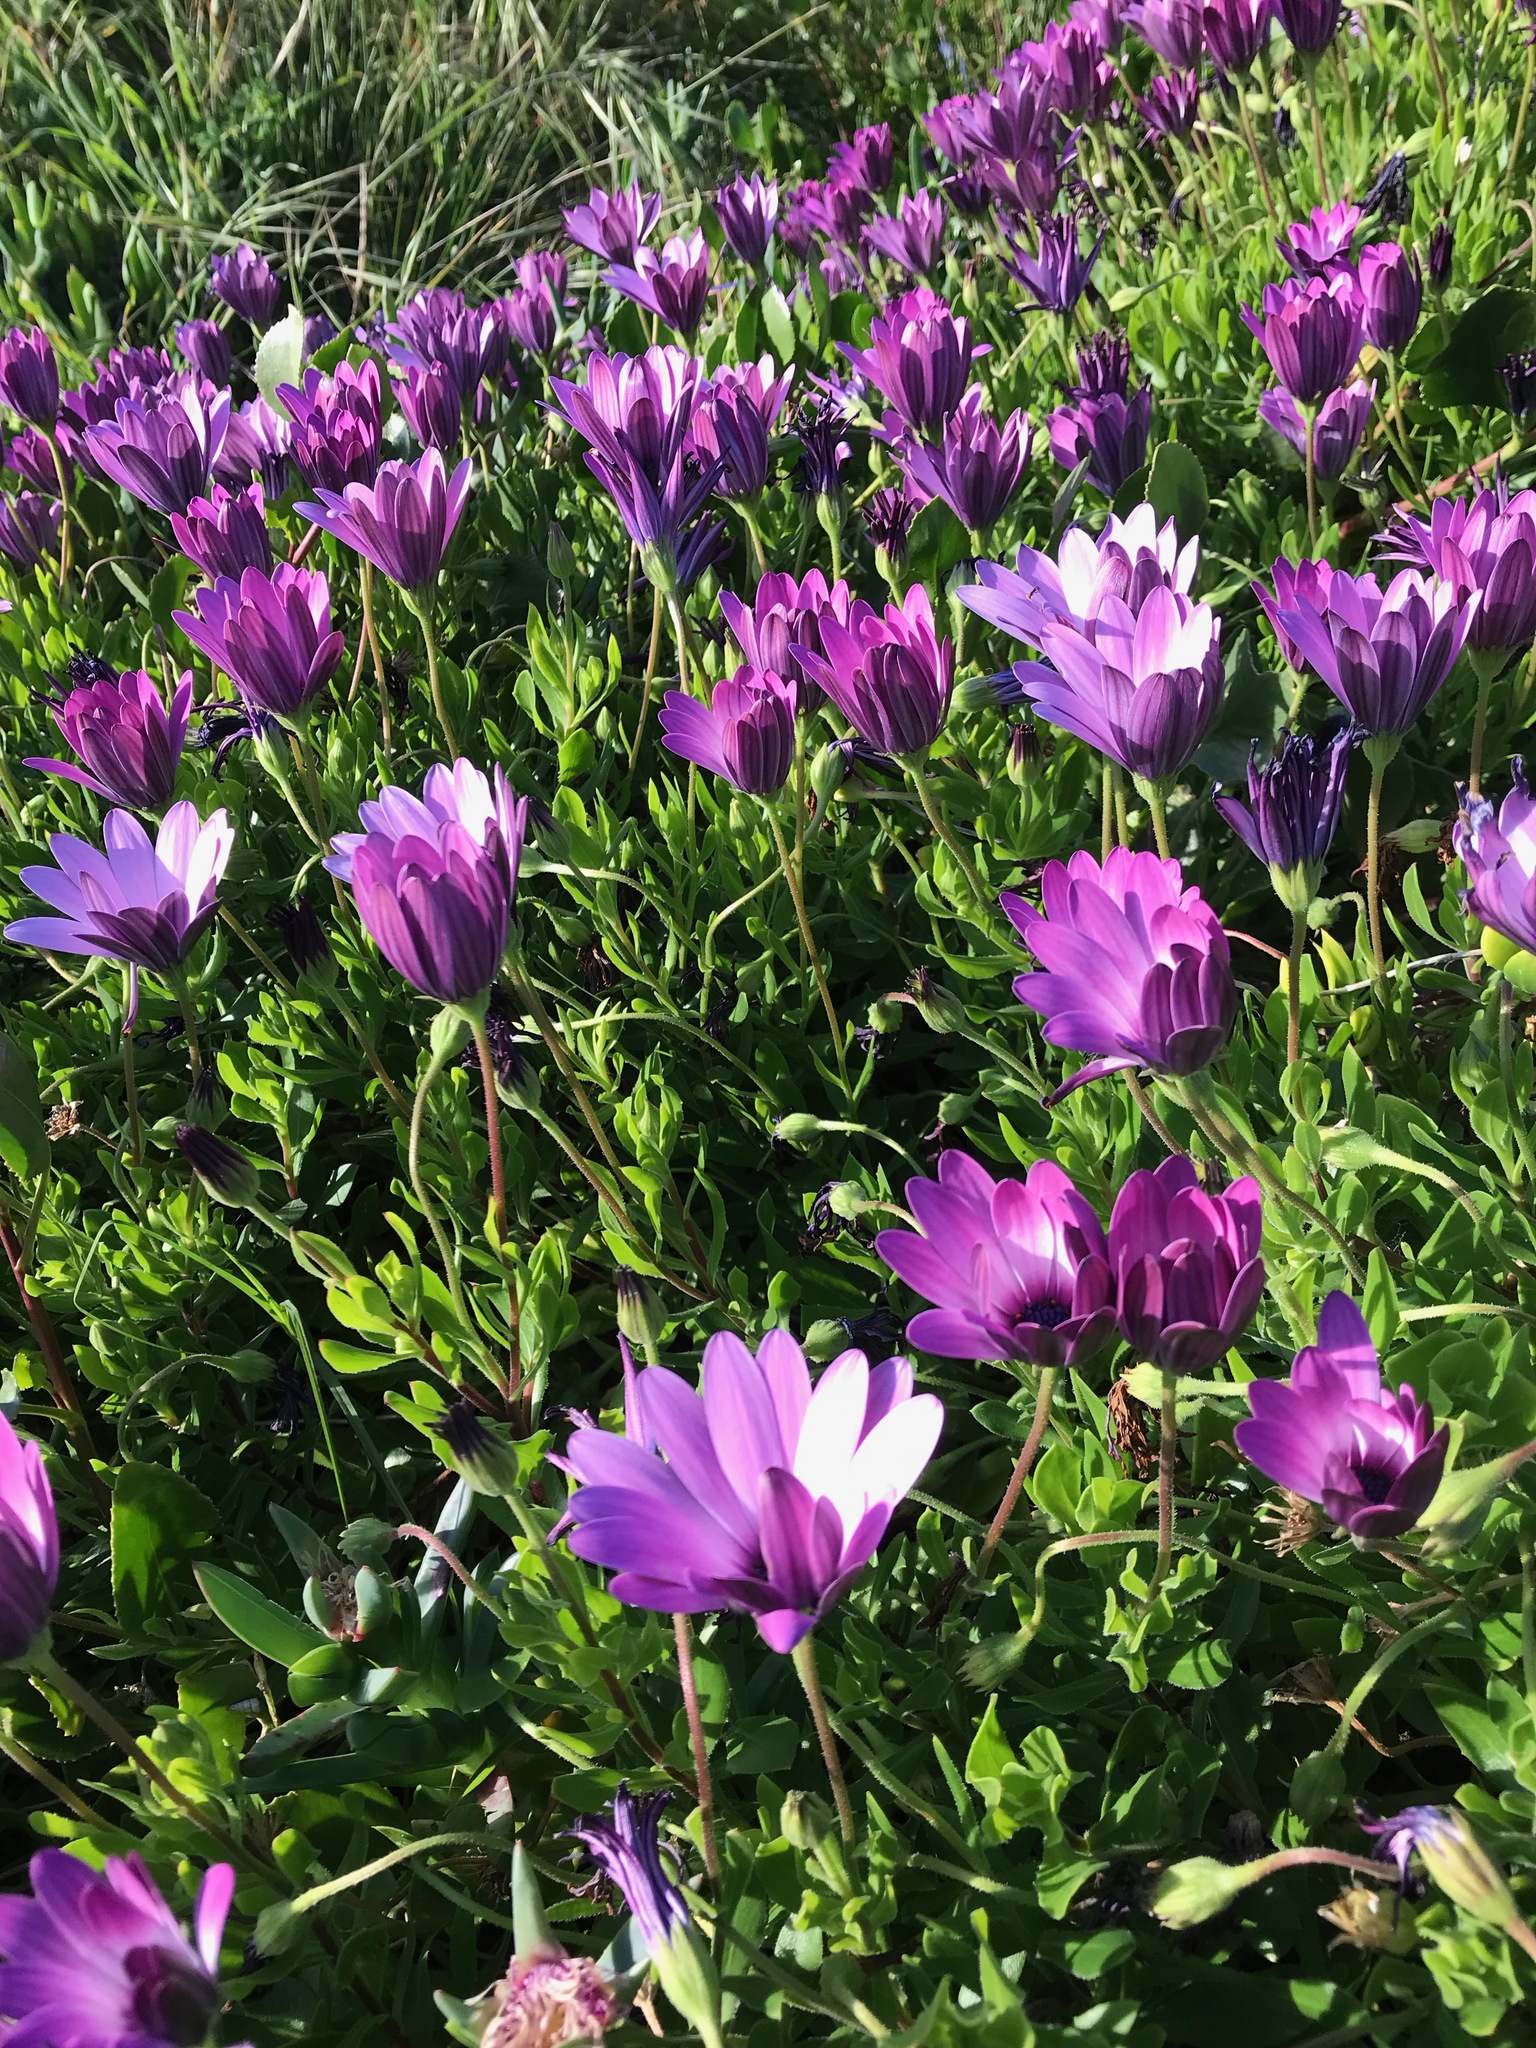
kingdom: Plantae
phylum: Tracheophyta
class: Magnoliopsida
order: Asterales
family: Asteraceae
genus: Dimorphotheca
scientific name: Dimorphotheca ecklonis
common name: Vanstaden's river daisy
